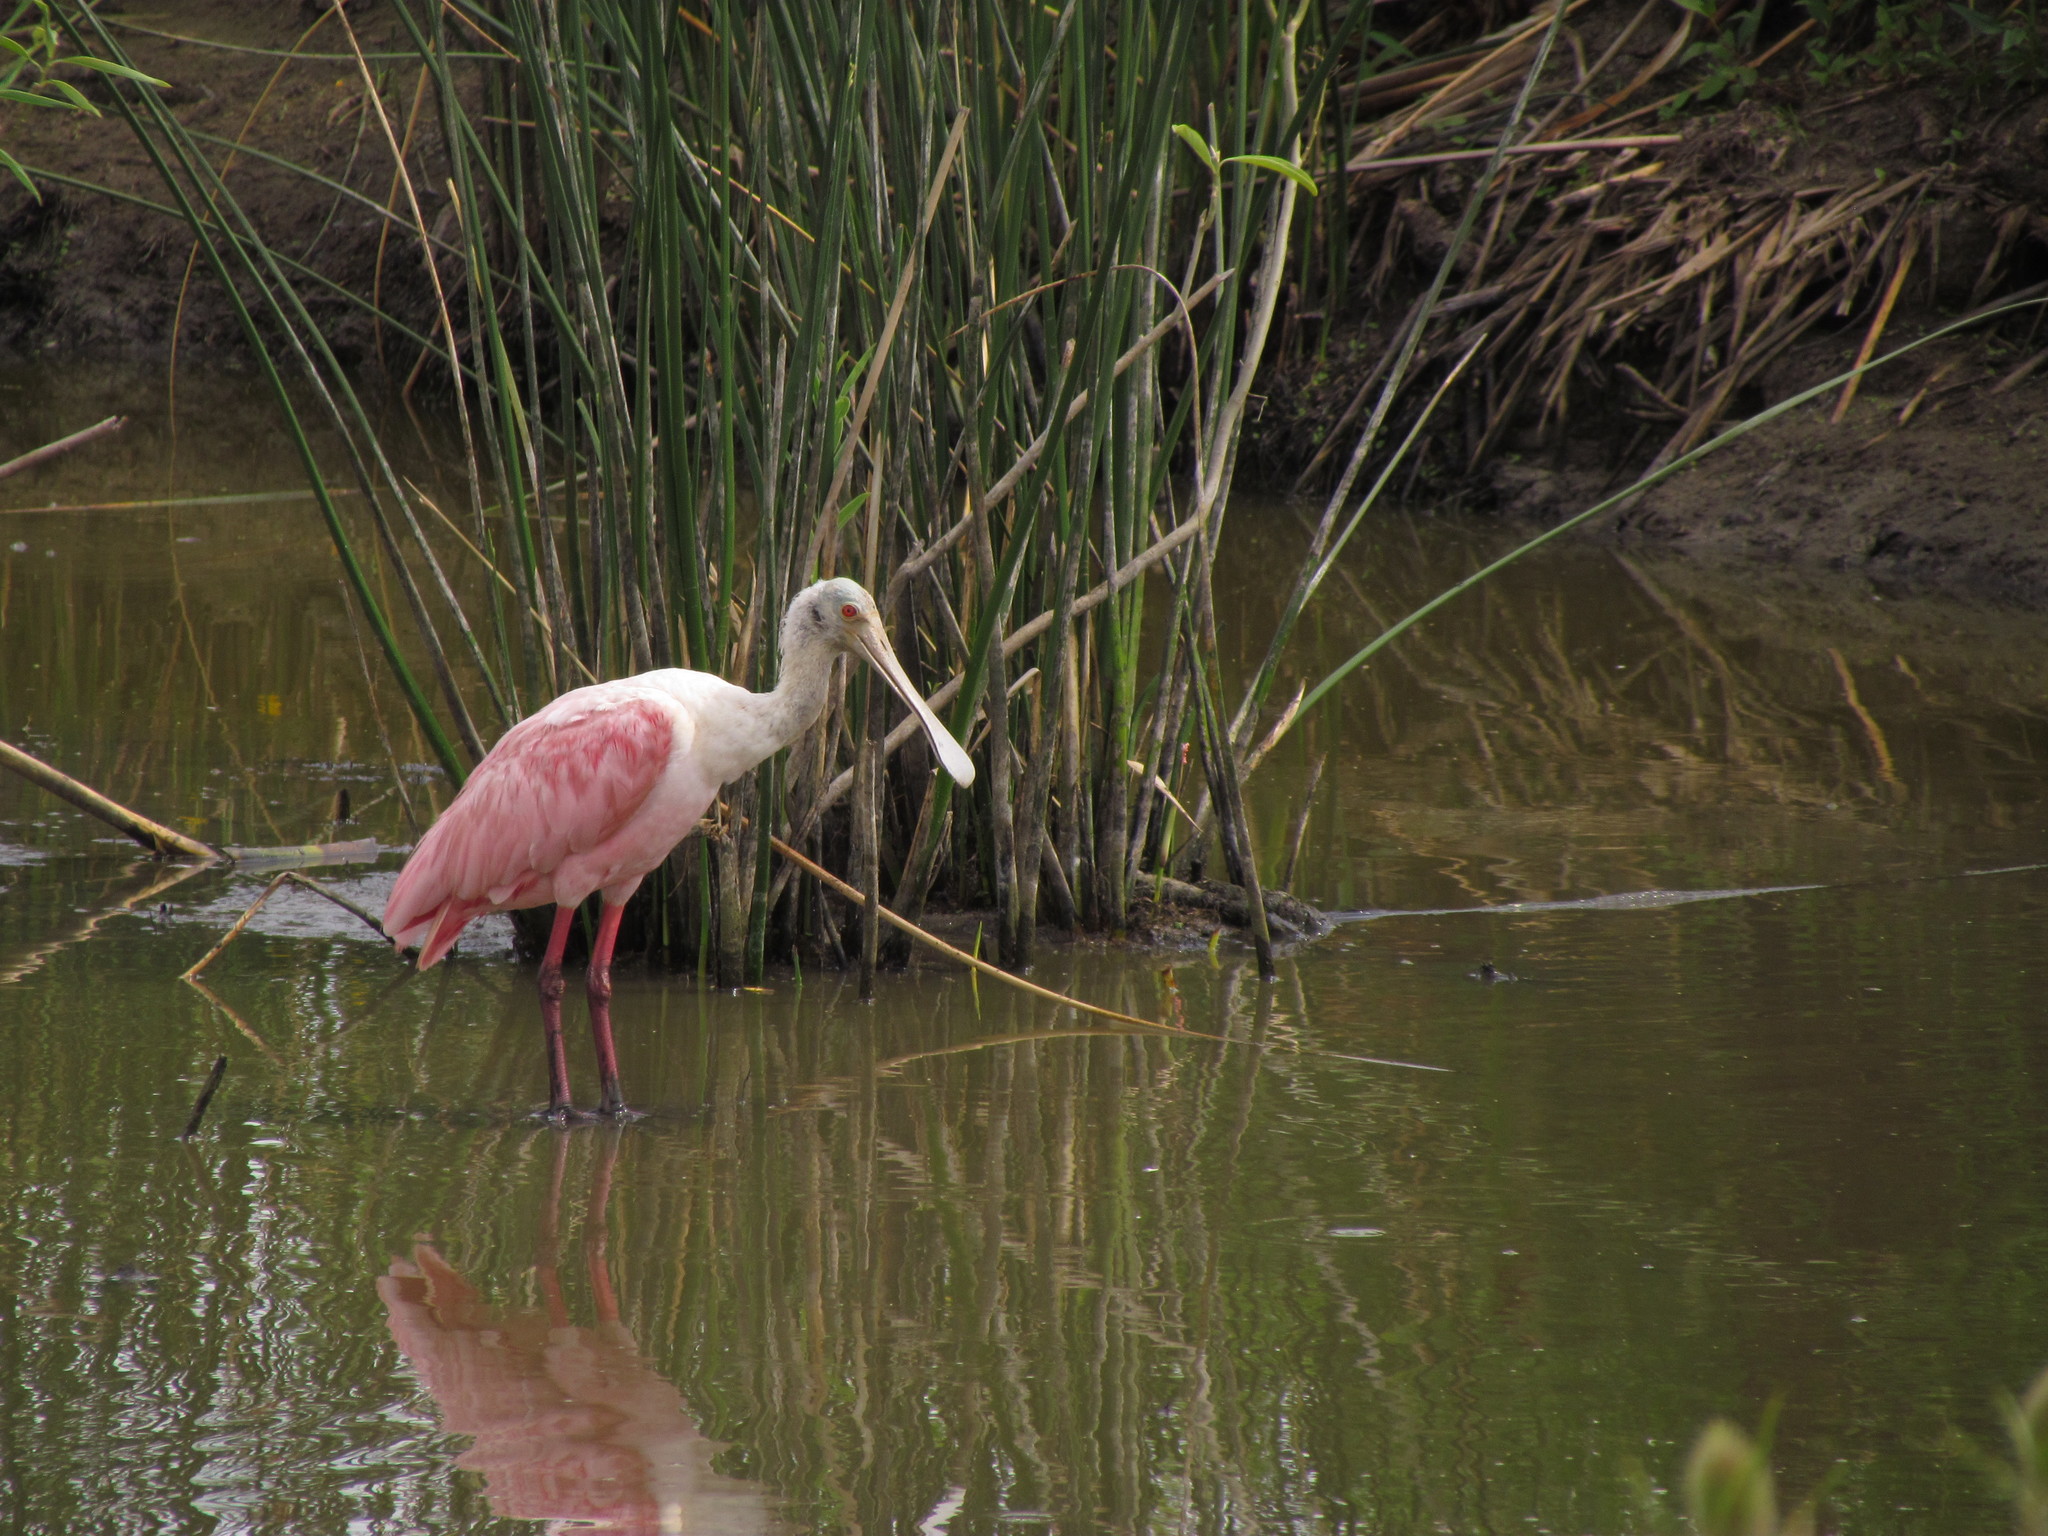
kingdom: Animalia
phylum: Chordata
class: Aves
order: Pelecaniformes
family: Threskiornithidae
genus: Platalea
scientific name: Platalea ajaja
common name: Roseate spoonbill
